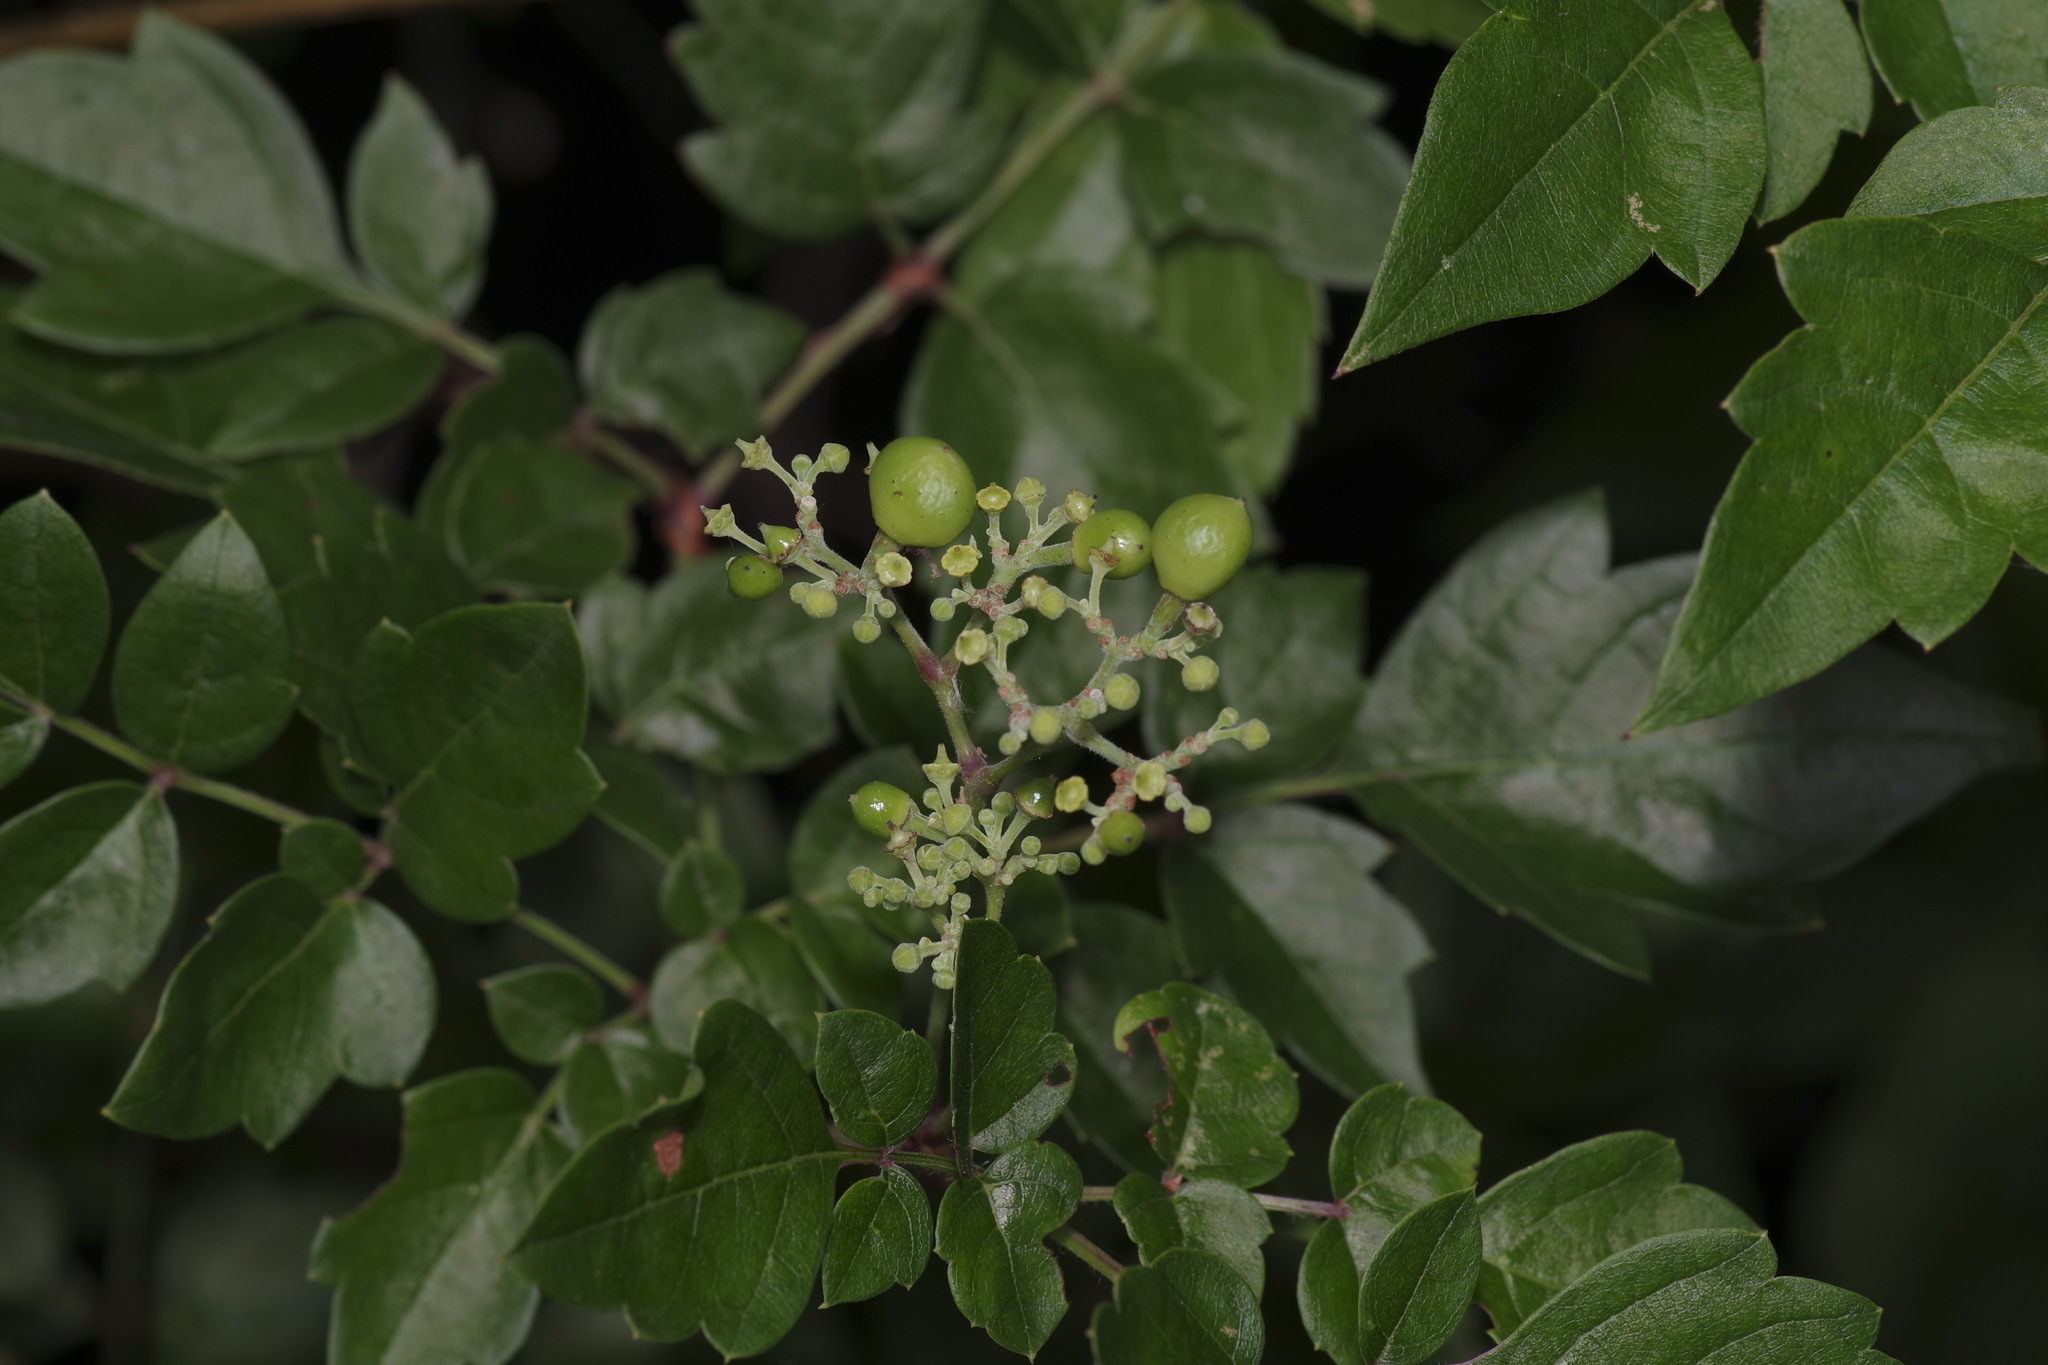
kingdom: Plantae
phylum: Tracheophyta
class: Magnoliopsida
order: Vitales
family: Vitaceae
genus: Nekemias
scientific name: Nekemias arborea
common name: Peppervine
